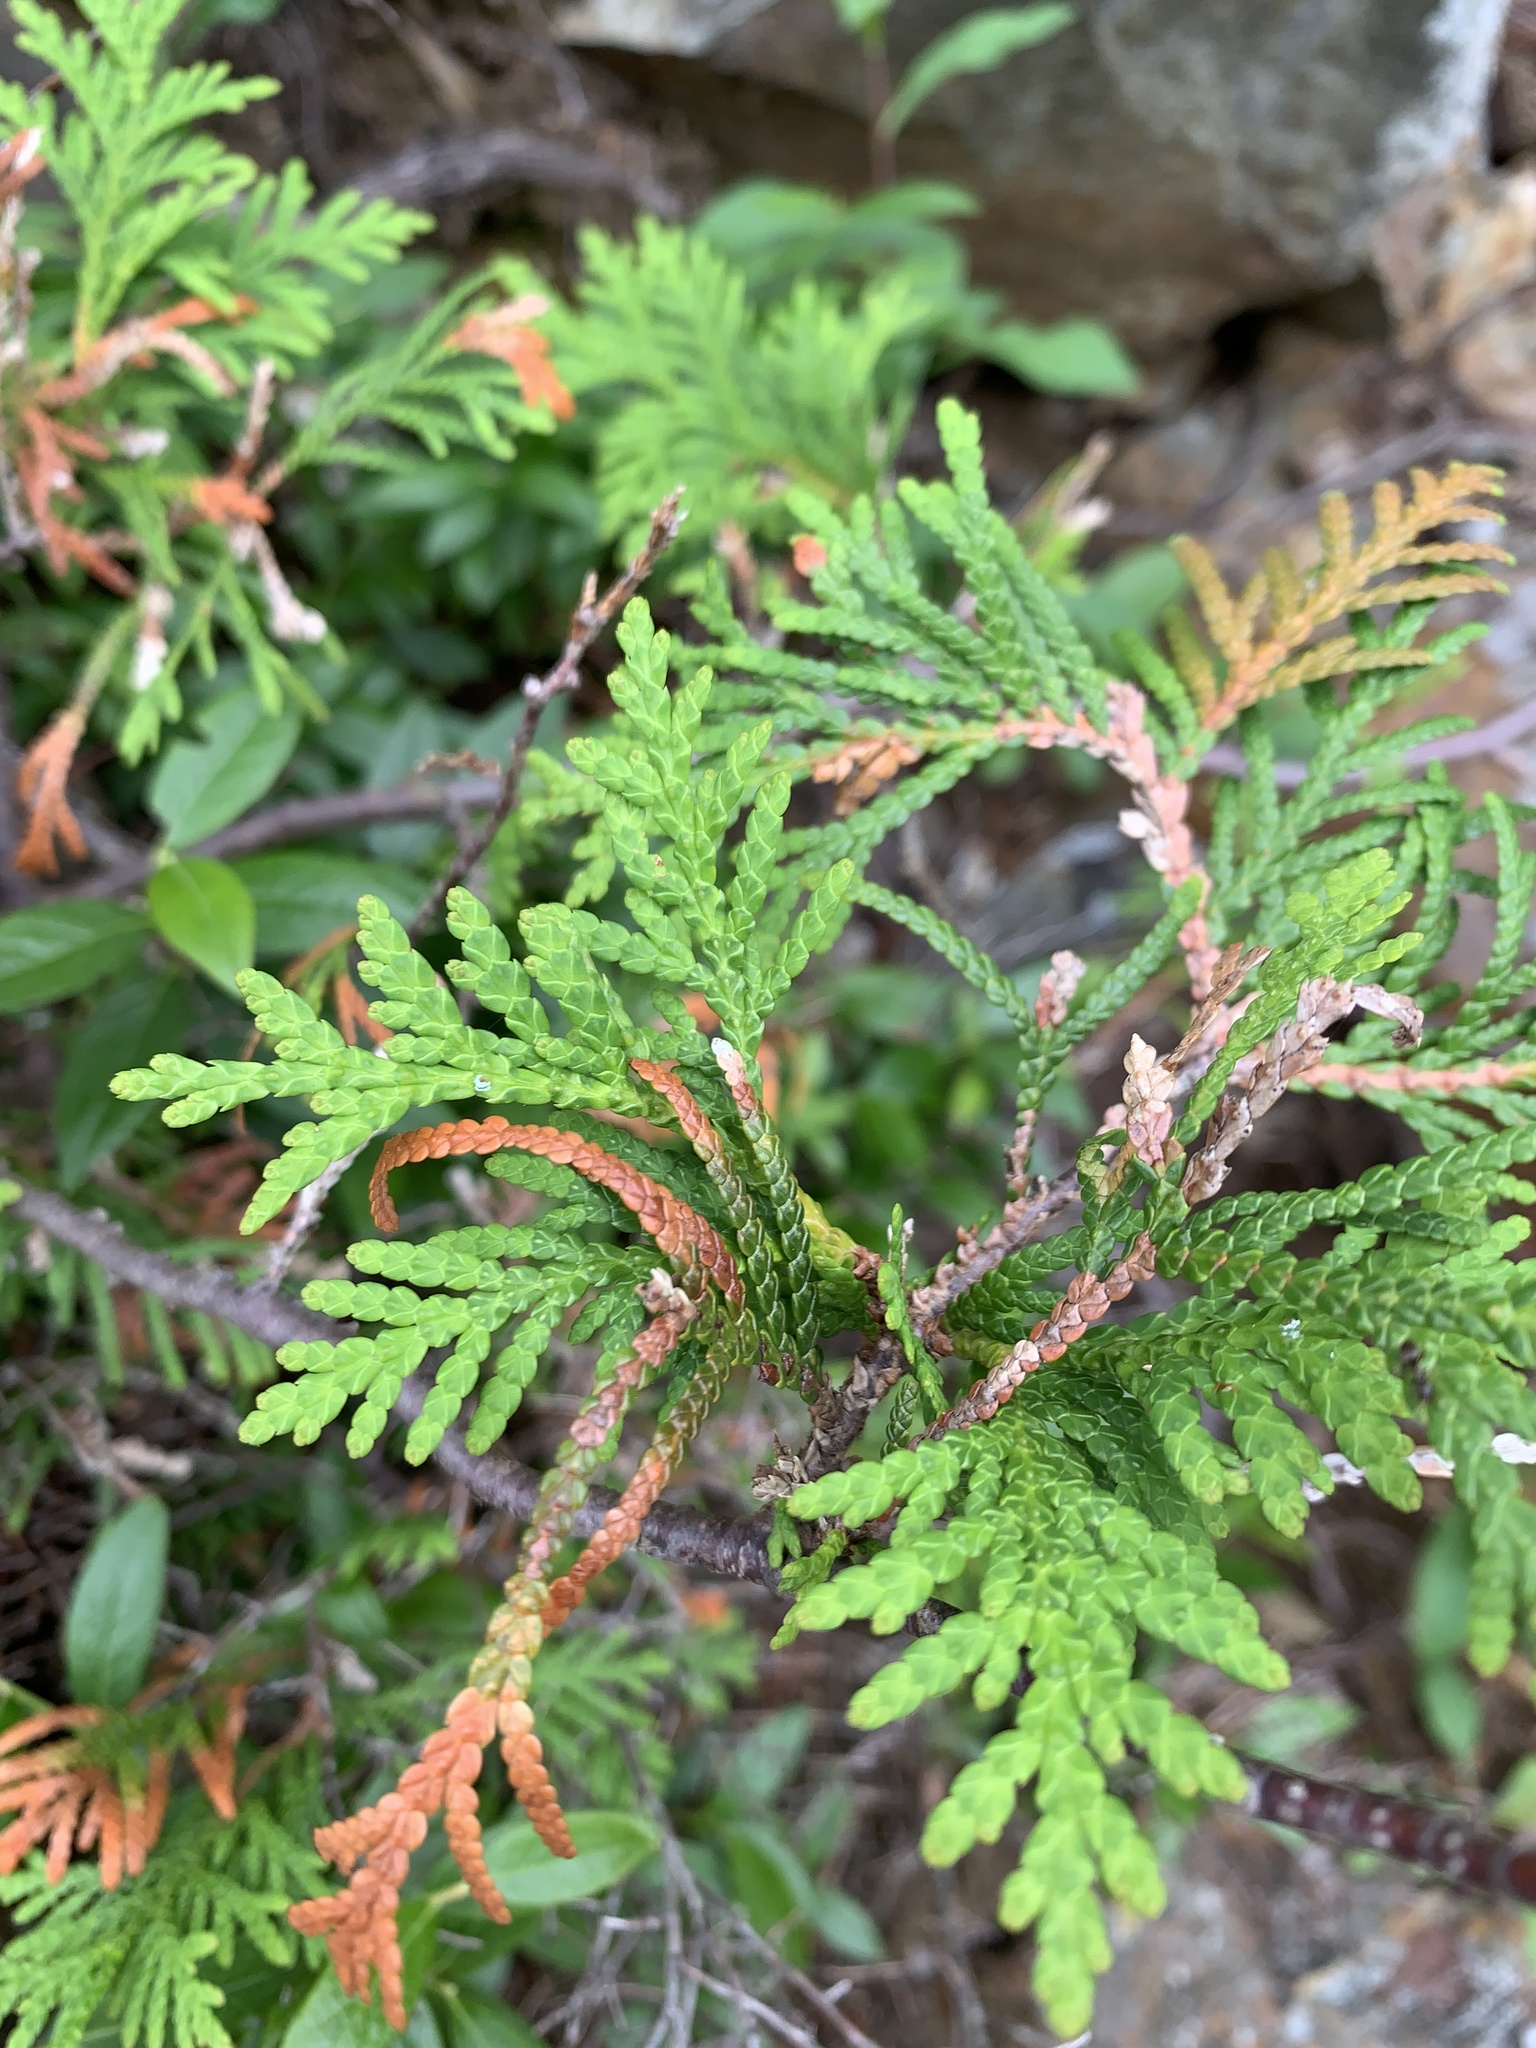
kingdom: Plantae
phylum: Tracheophyta
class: Pinopsida
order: Pinales
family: Cupressaceae
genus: Thuja
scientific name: Thuja occidentalis
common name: Northern white-cedar
